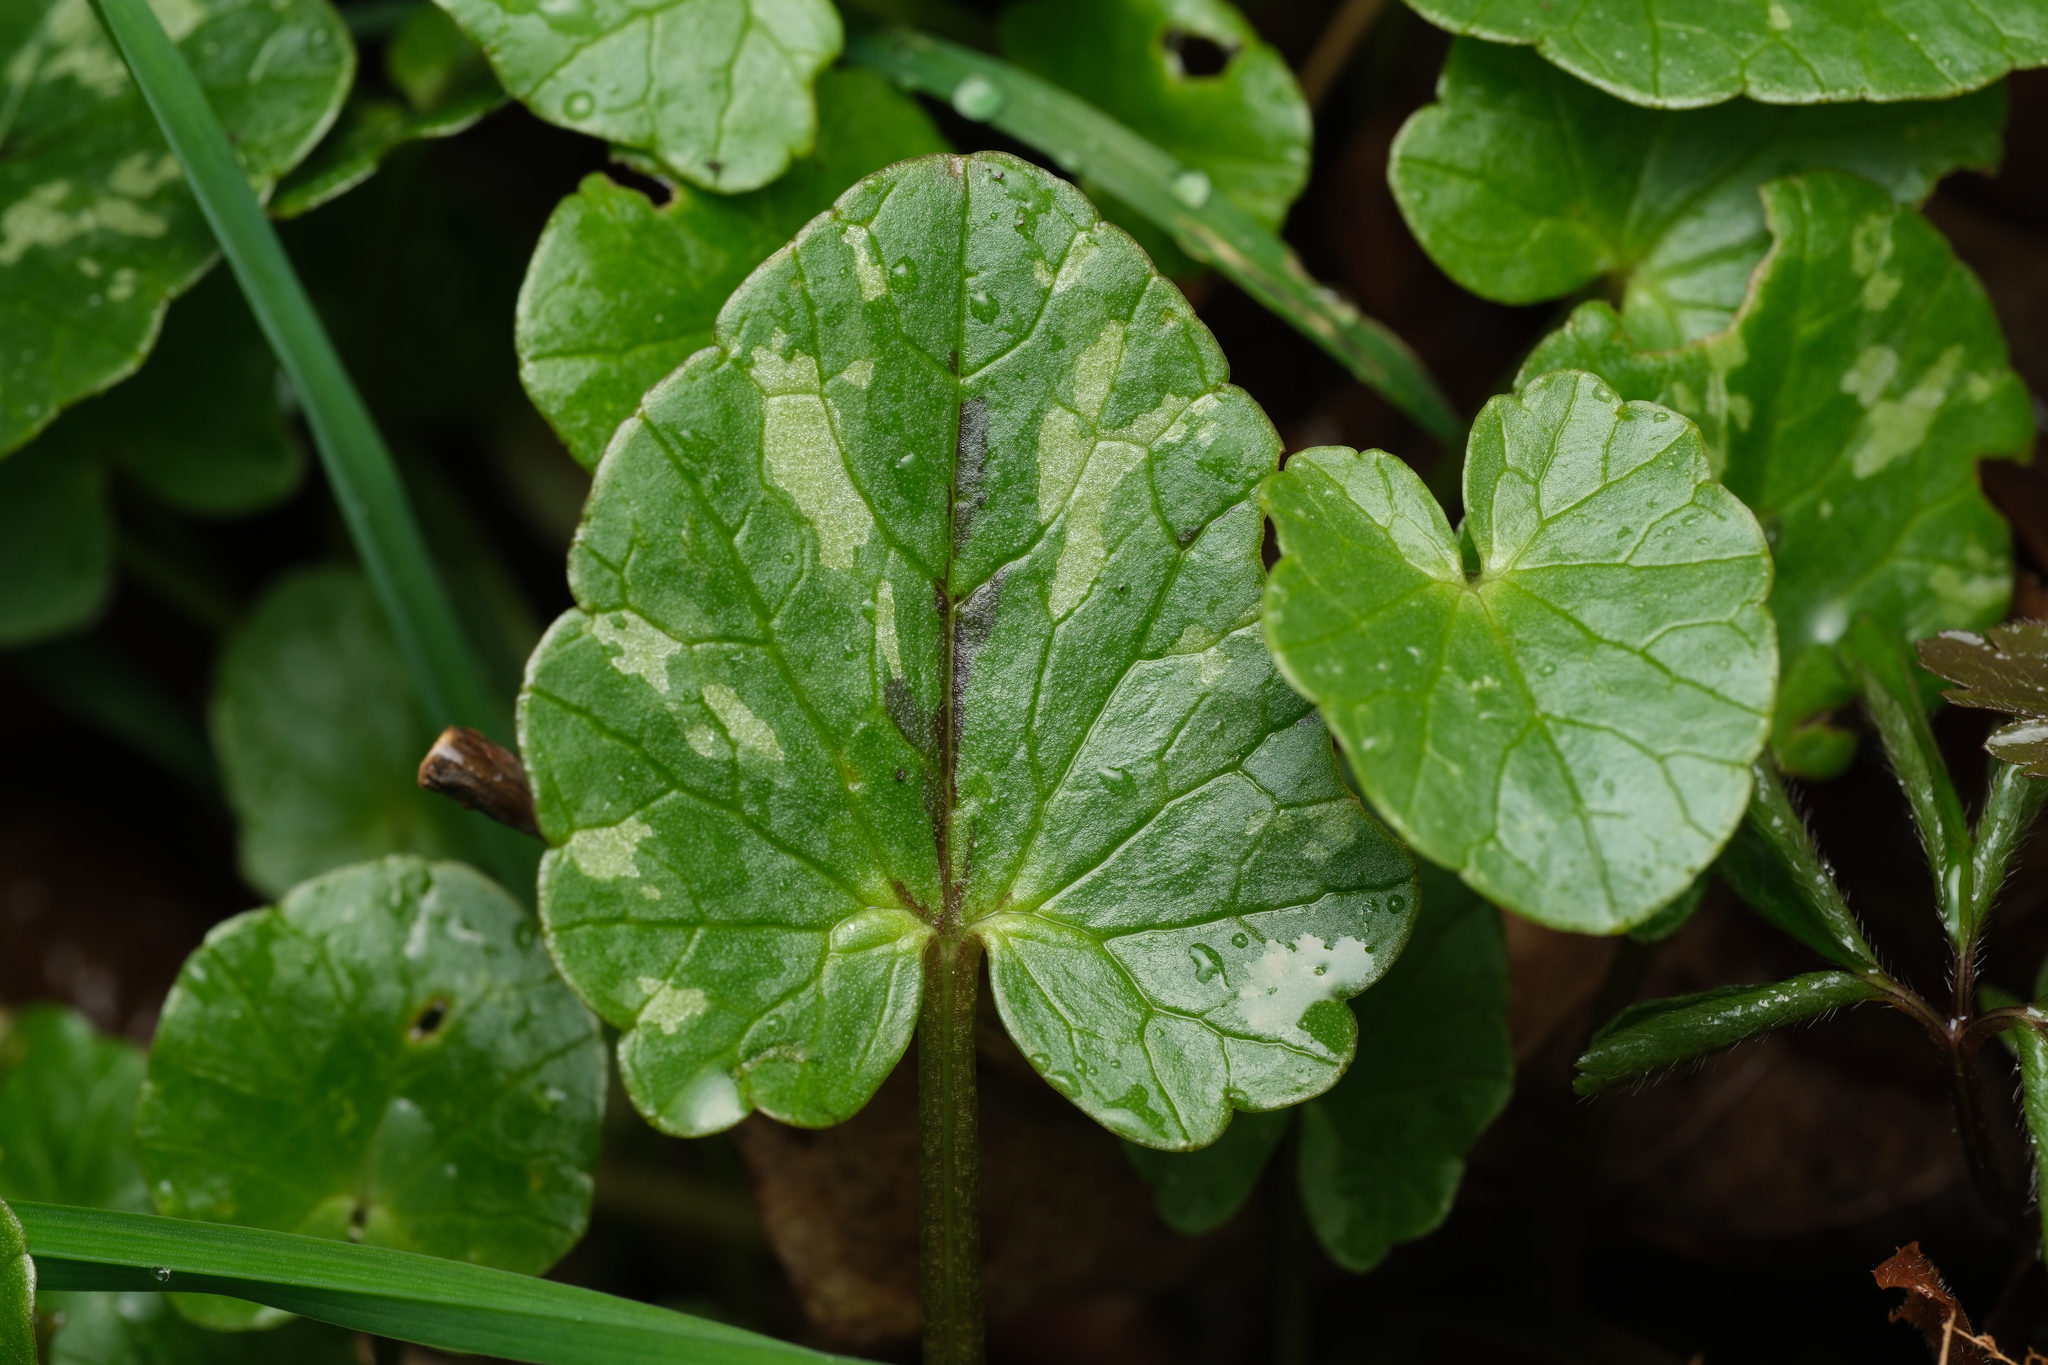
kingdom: Plantae
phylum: Tracheophyta
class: Magnoliopsida
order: Ranunculales
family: Ranunculaceae
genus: Ficaria
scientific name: Ficaria verna
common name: Lesser celandine
